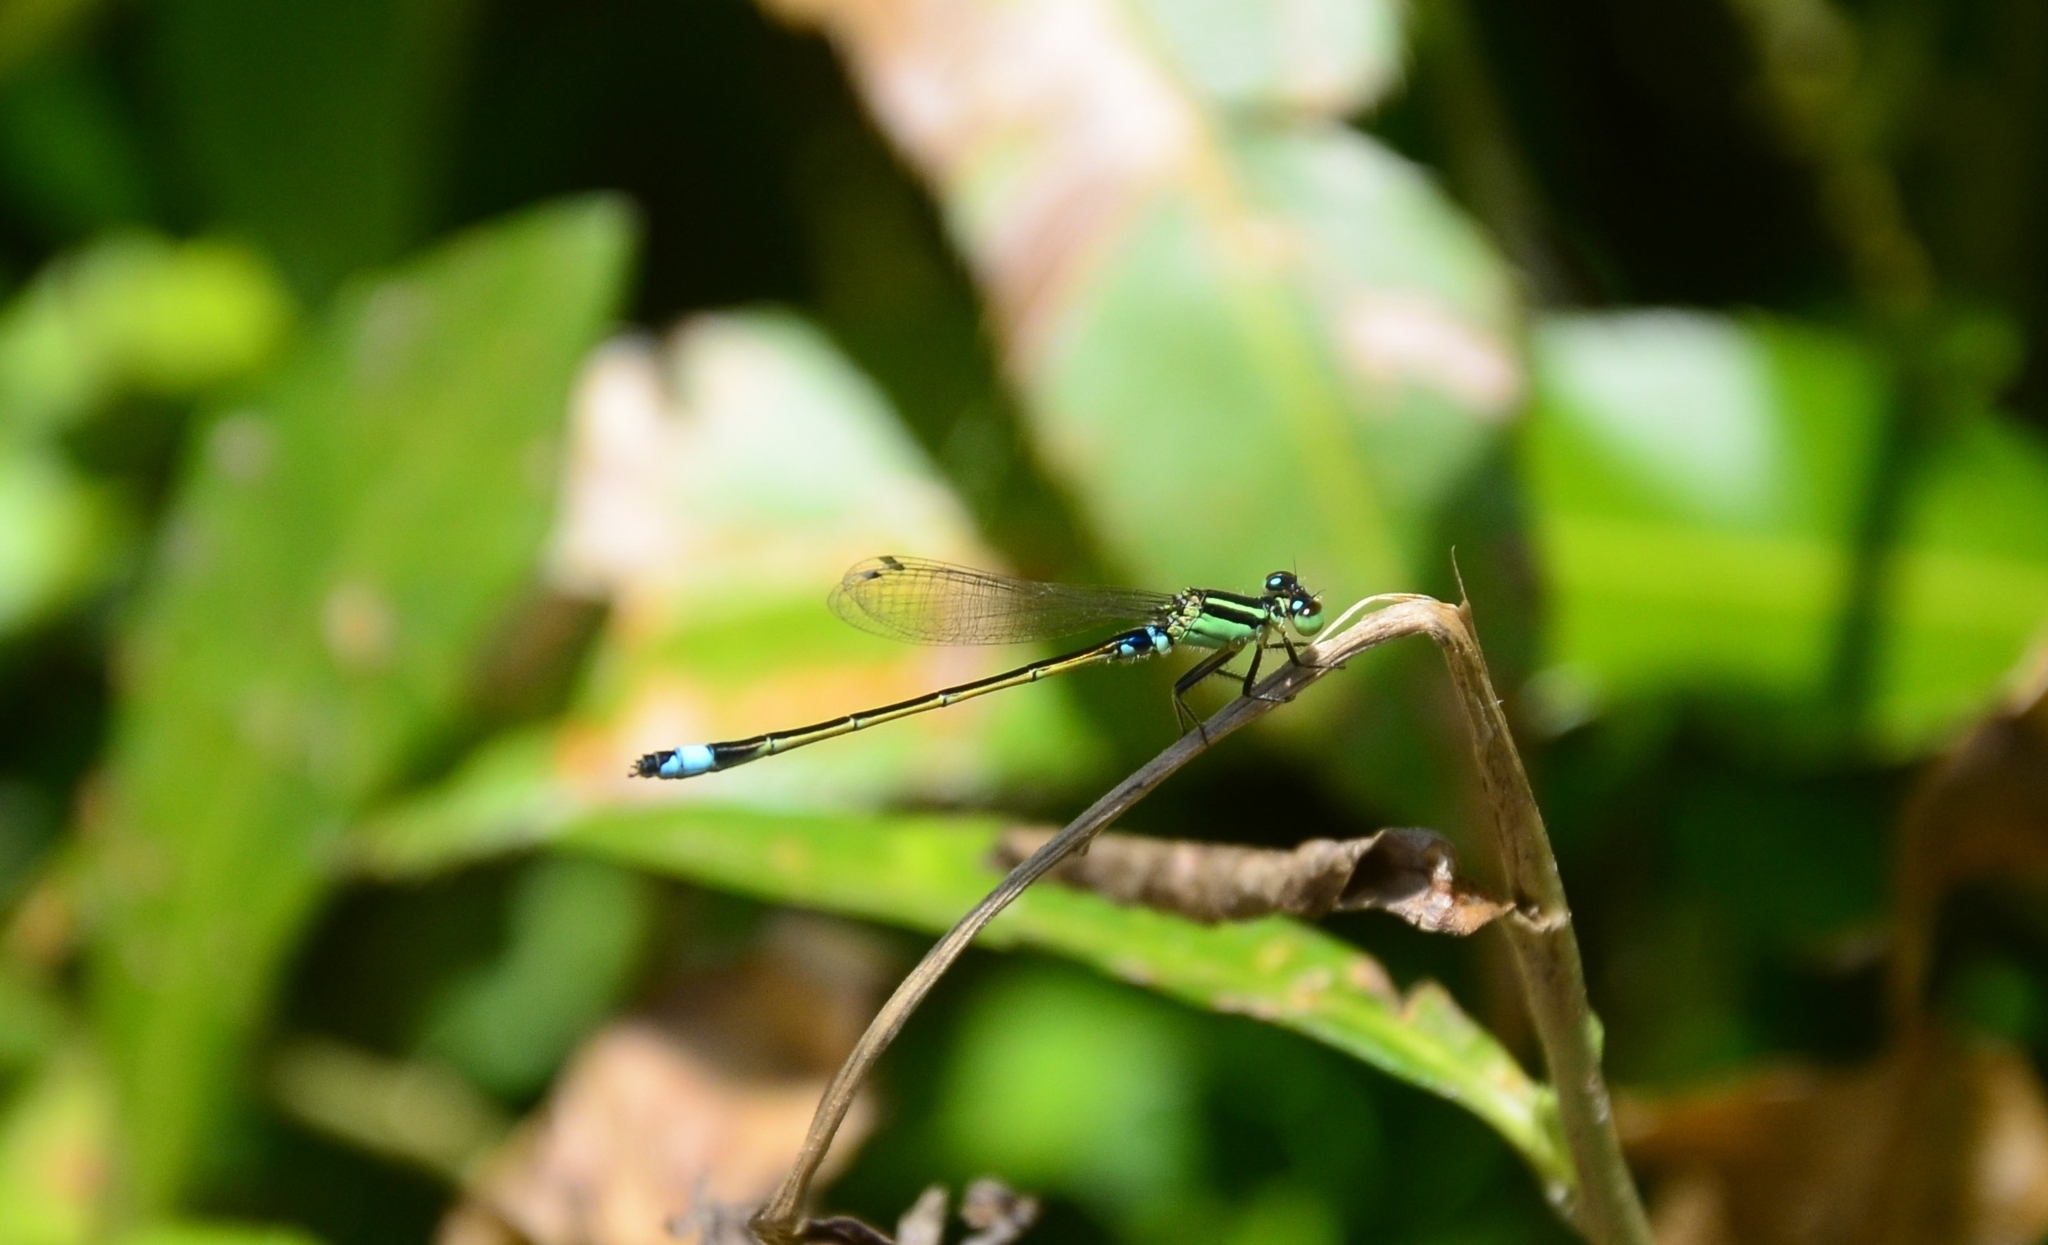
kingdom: Animalia
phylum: Arthropoda
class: Insecta
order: Odonata
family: Coenagrionidae
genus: Ischnura
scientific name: Ischnura senegalensis
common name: Tropical bluetail
